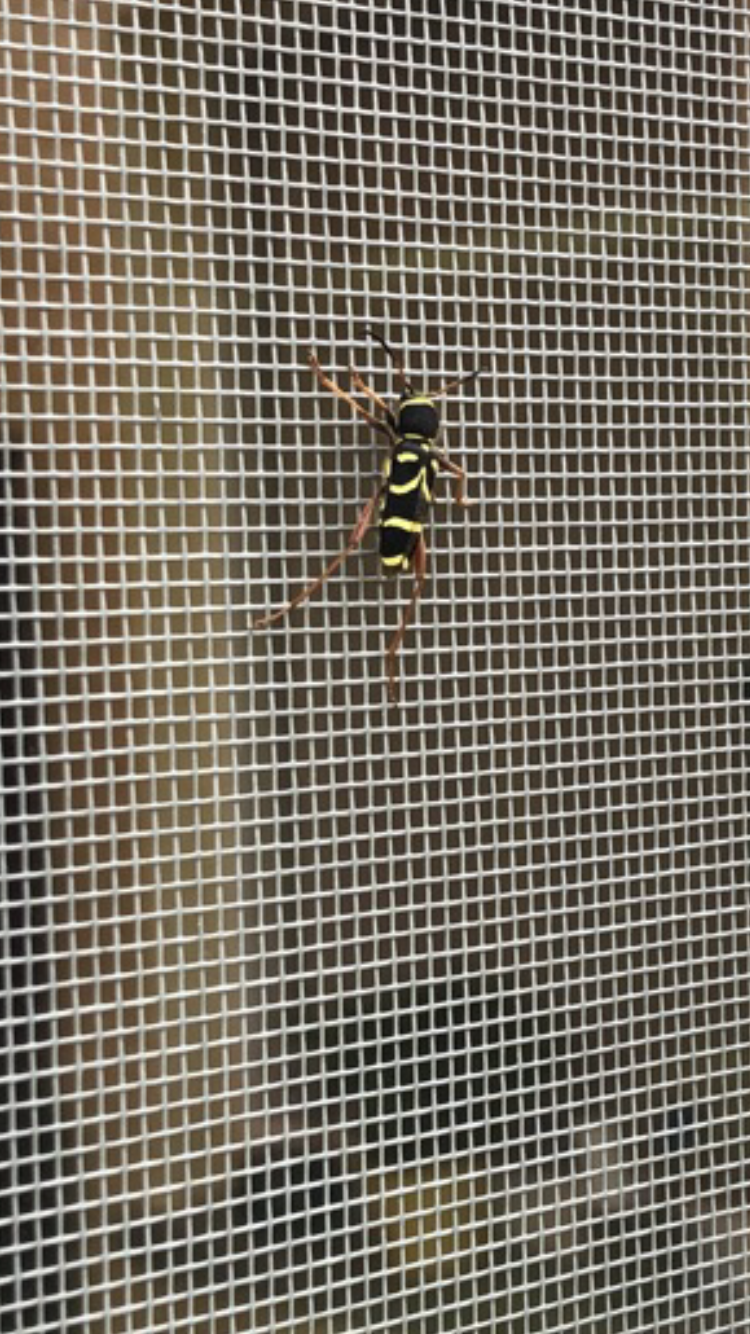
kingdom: Animalia
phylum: Arthropoda
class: Insecta
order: Coleoptera
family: Cerambycidae
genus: Clytus
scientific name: Clytus arietis
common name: Wasp beetle
